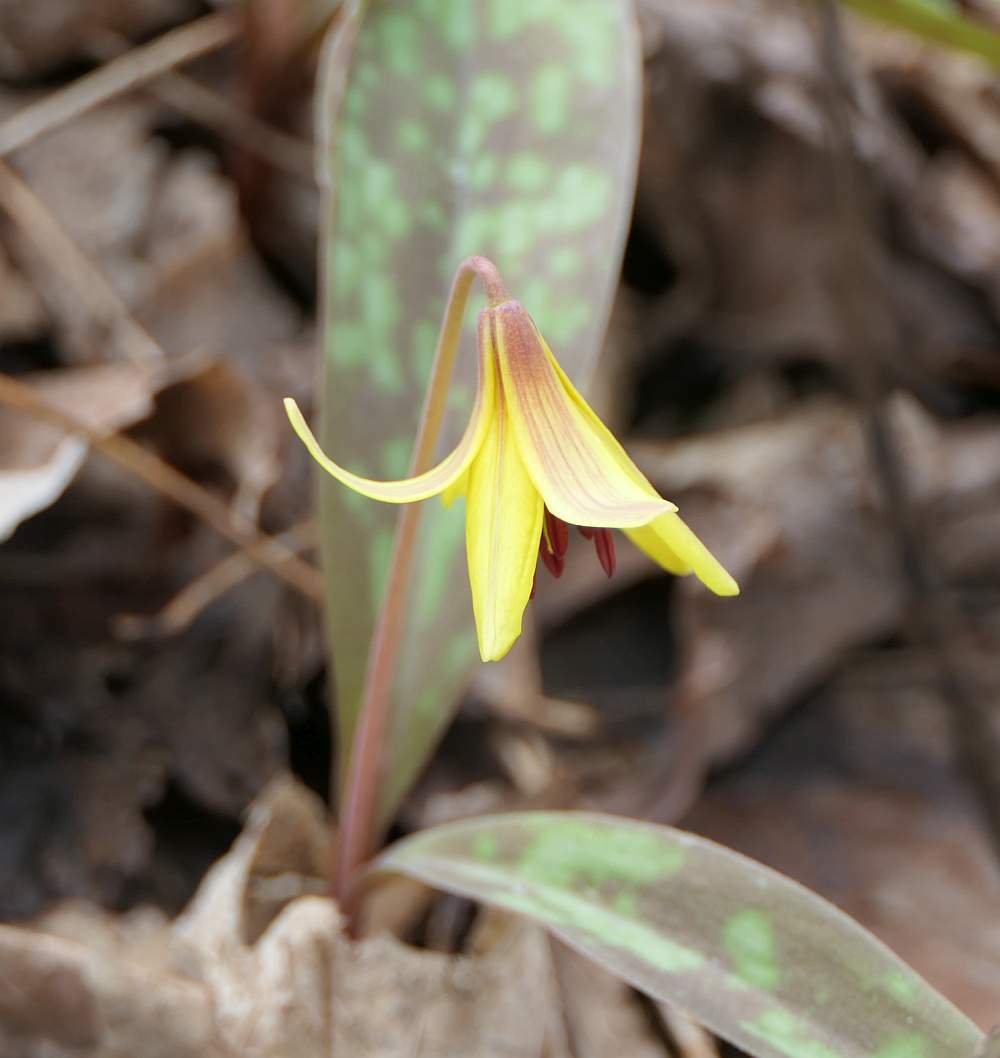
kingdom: Plantae
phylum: Tracheophyta
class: Liliopsida
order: Liliales
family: Liliaceae
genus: Erythronium
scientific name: Erythronium americanum
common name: Yellow adder's-tongue
